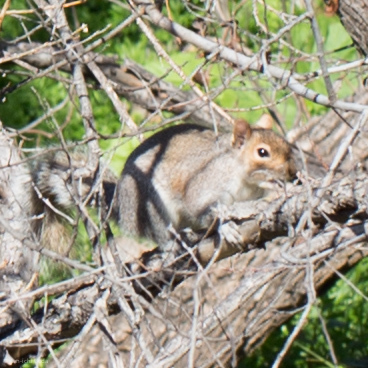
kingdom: Animalia
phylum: Chordata
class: Mammalia
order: Rodentia
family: Sciuridae
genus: Sciurus
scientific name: Sciurus carolinensis
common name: Eastern gray squirrel
